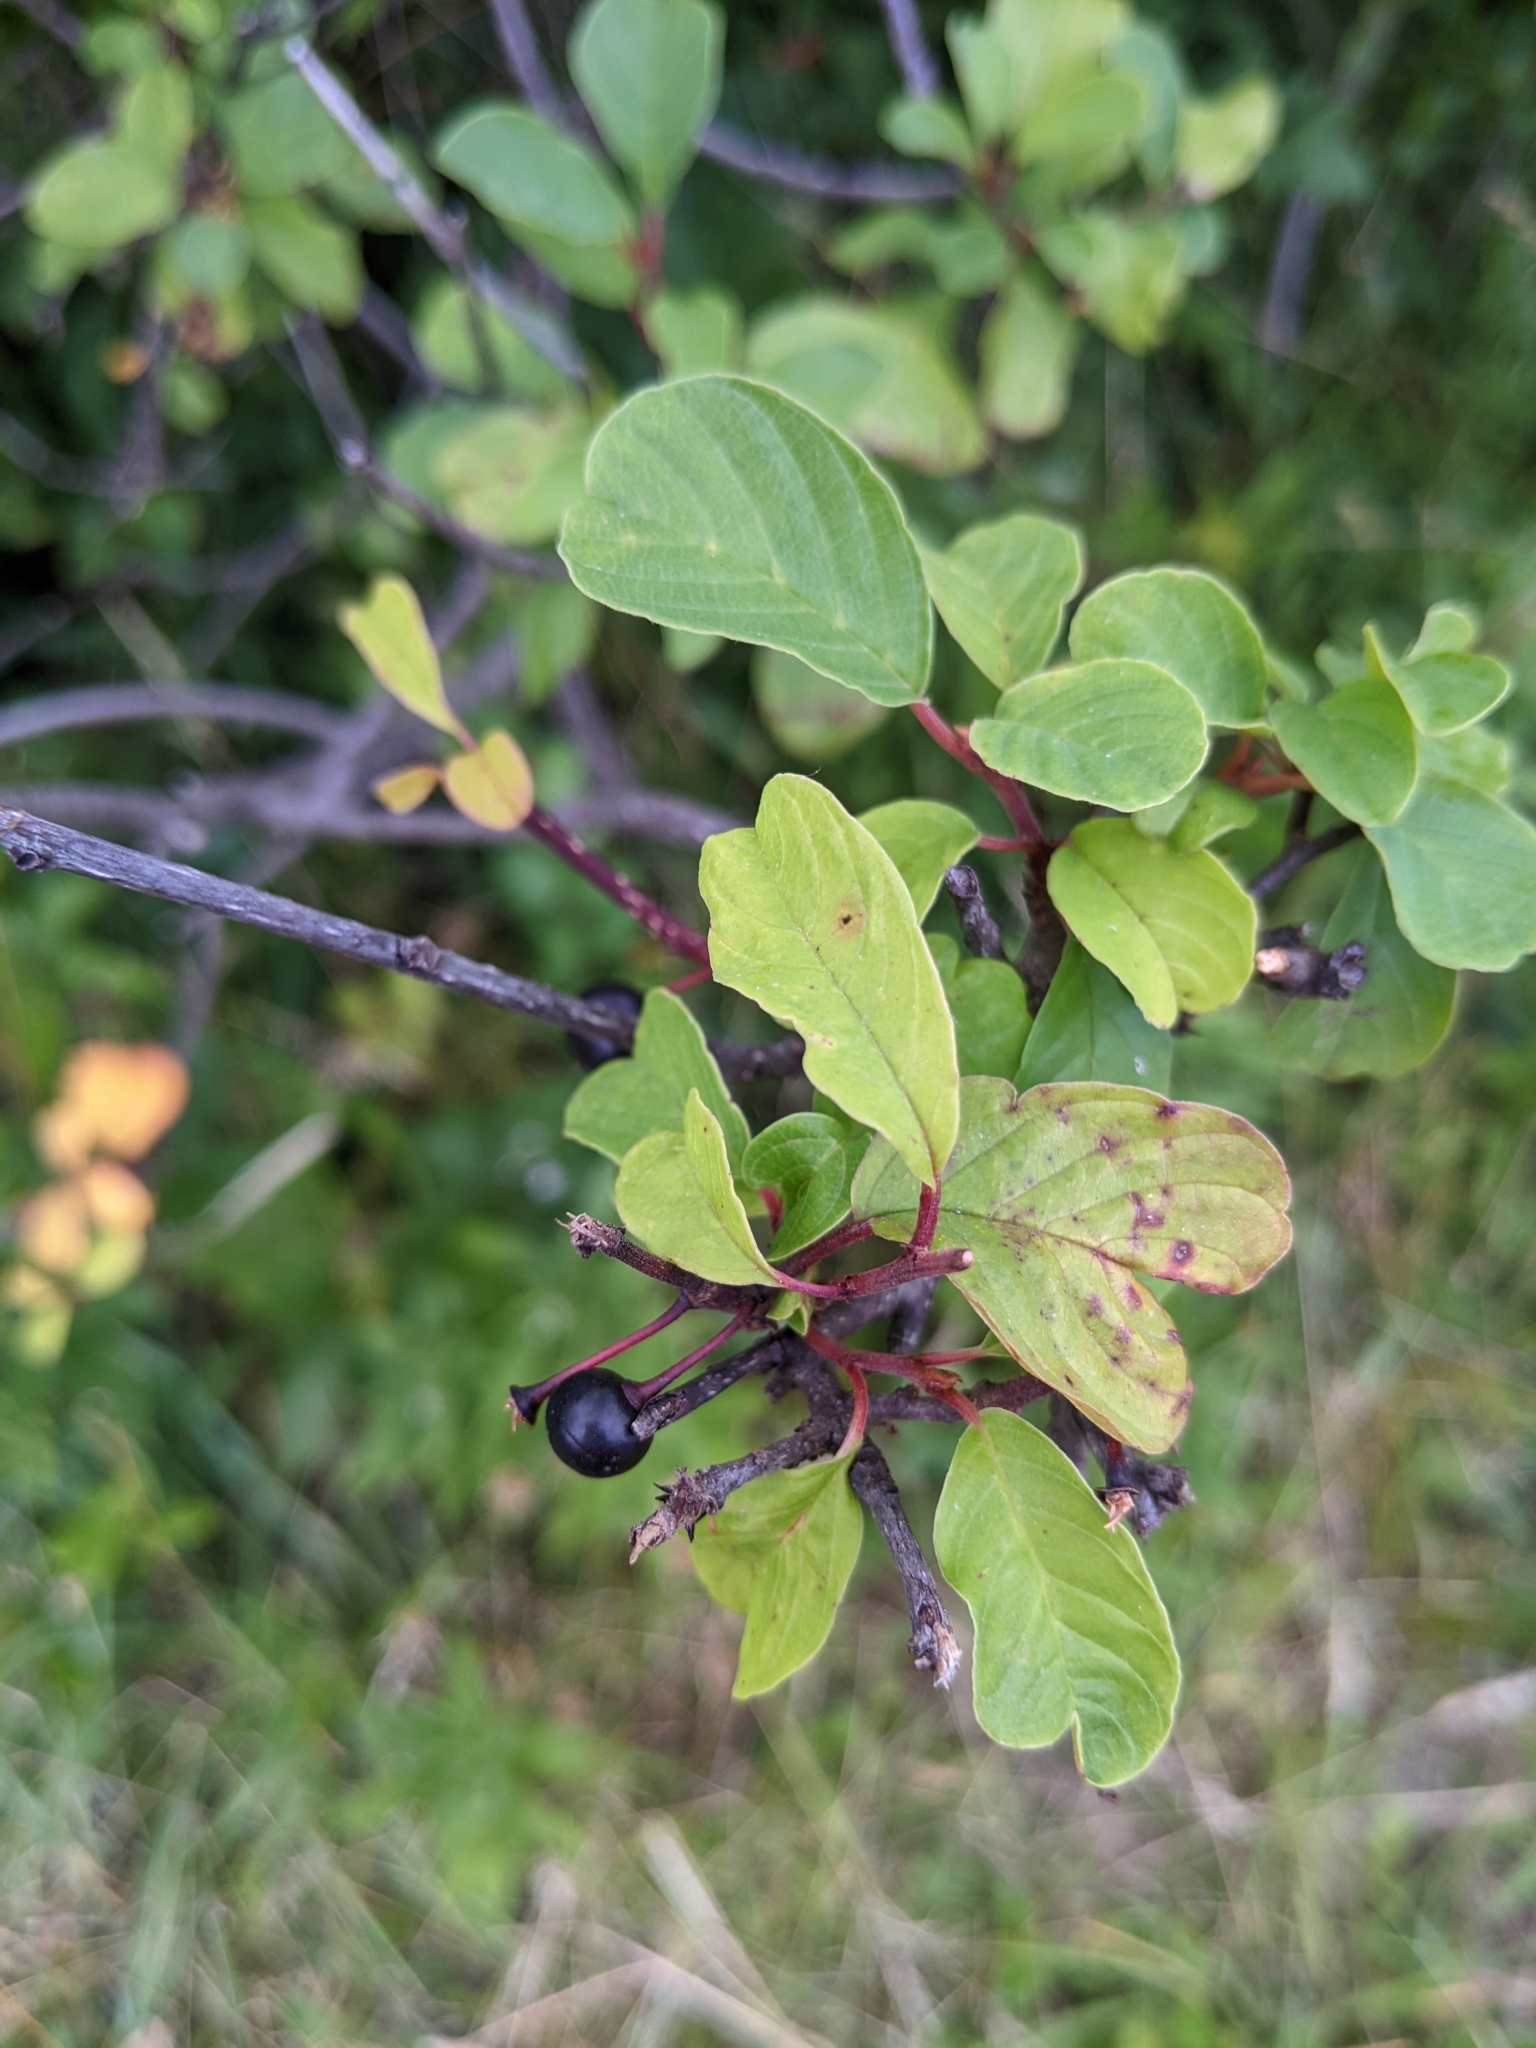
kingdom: Plantae
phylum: Tracheophyta
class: Magnoliopsida
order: Rosales
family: Rhamnaceae
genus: Frangula
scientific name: Frangula alnus
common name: Alder buckthorn
